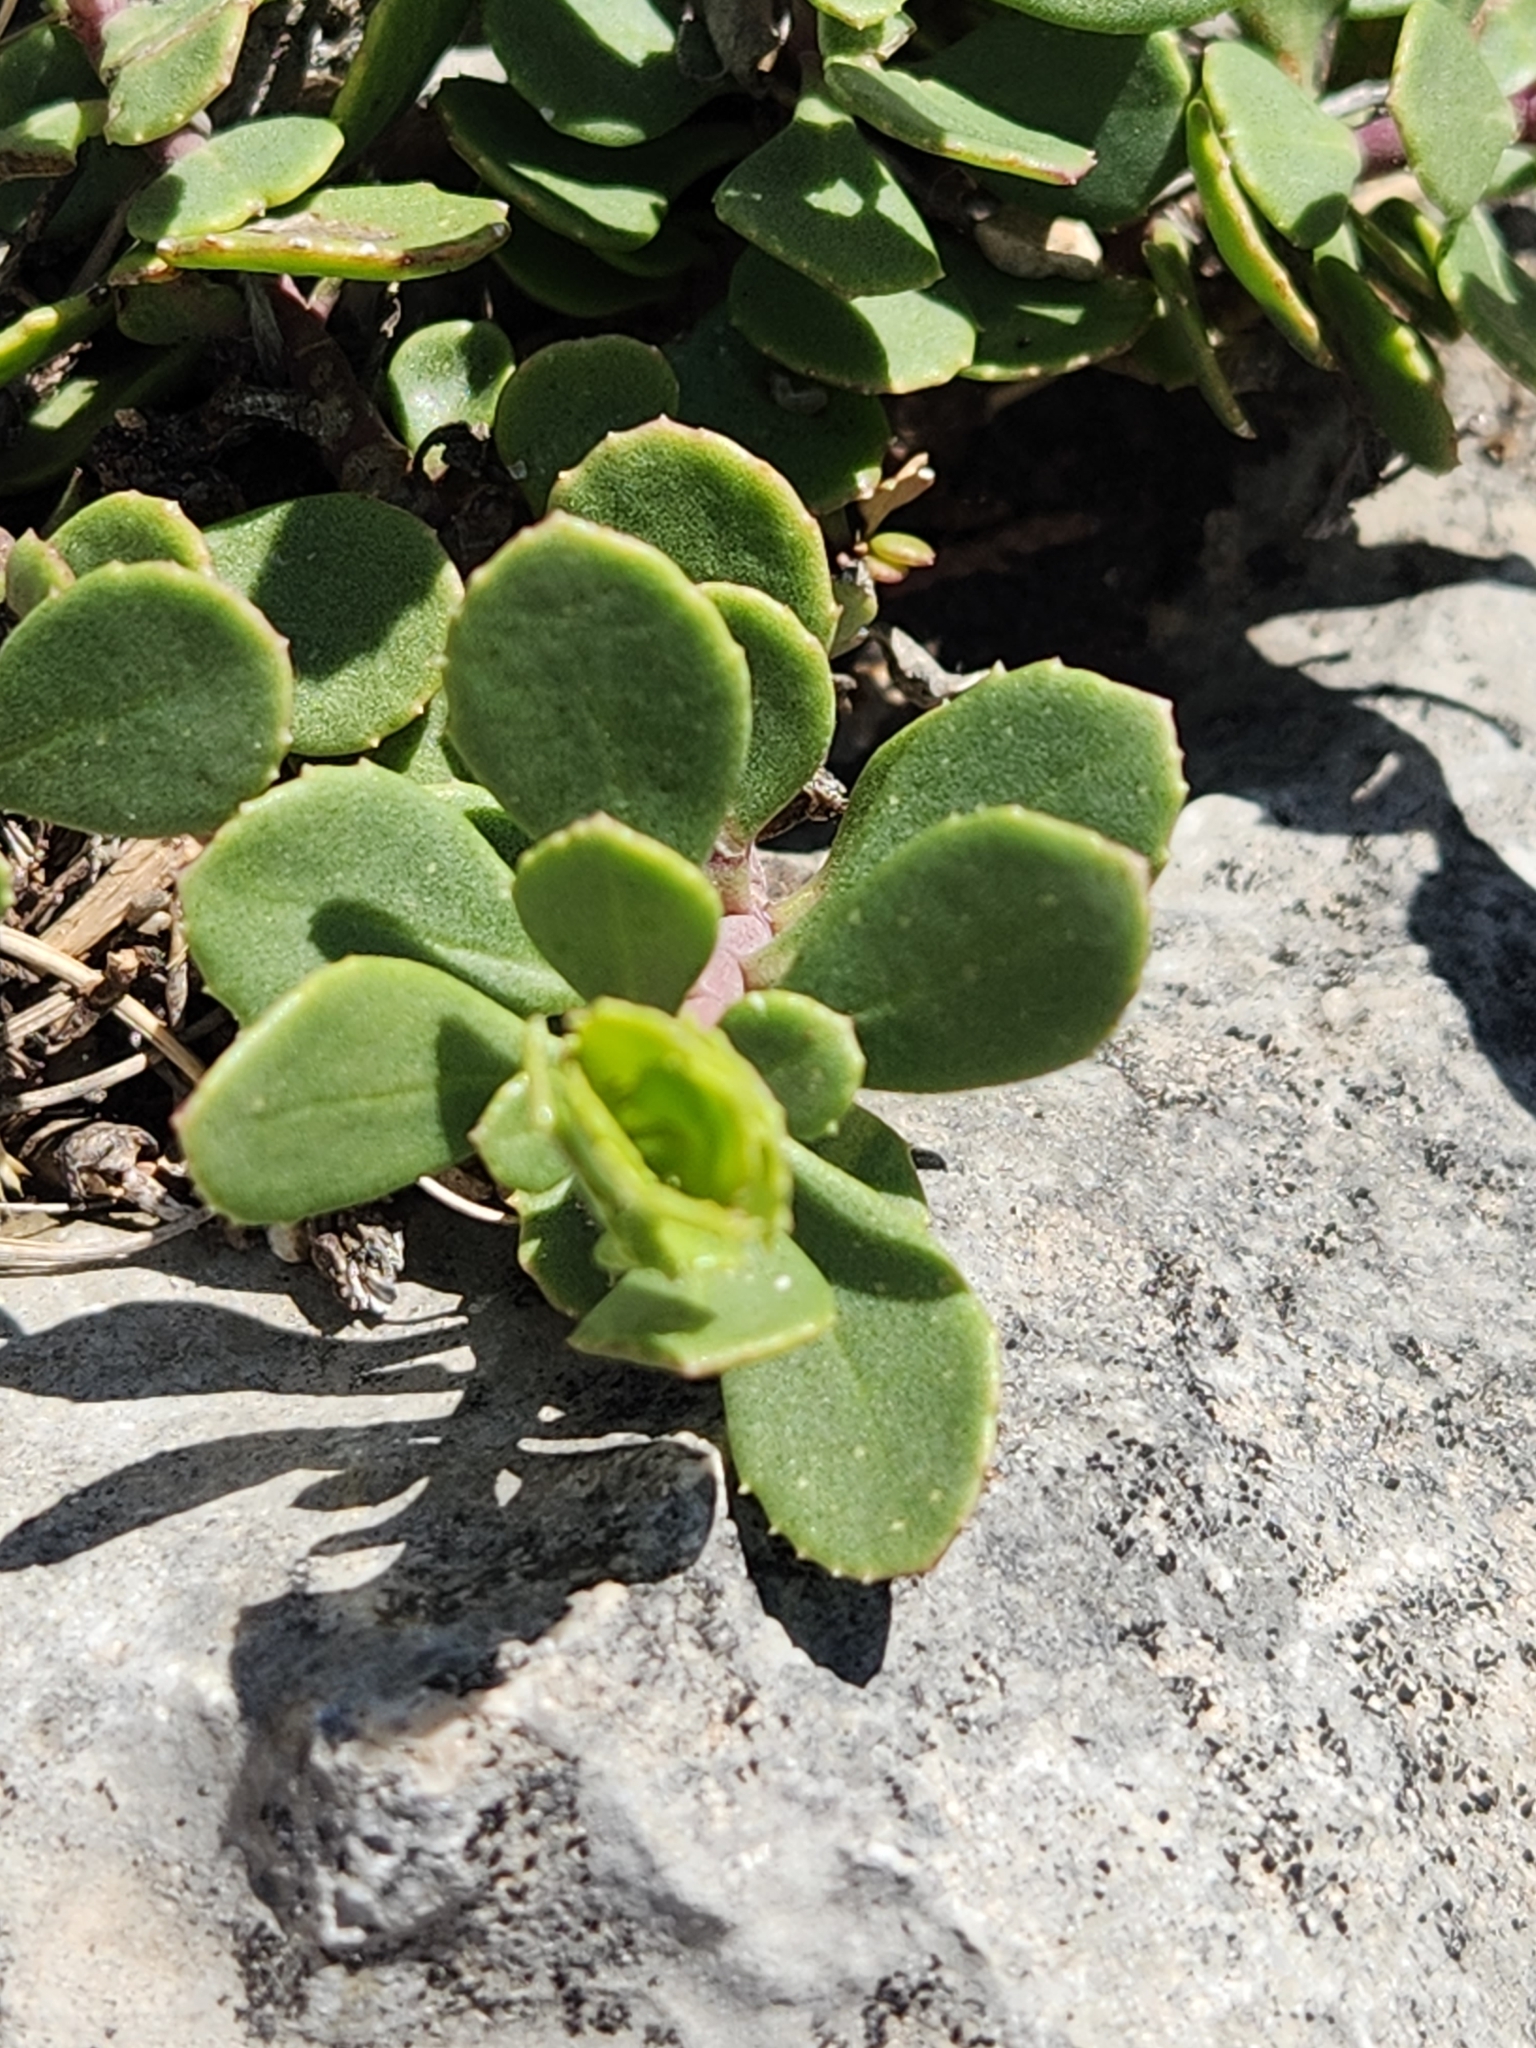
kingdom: Plantae
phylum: Tracheophyta
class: Magnoliopsida
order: Lamiales
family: Plantaginaceae
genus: Penstemon
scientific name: Penstemon baccharifolius
